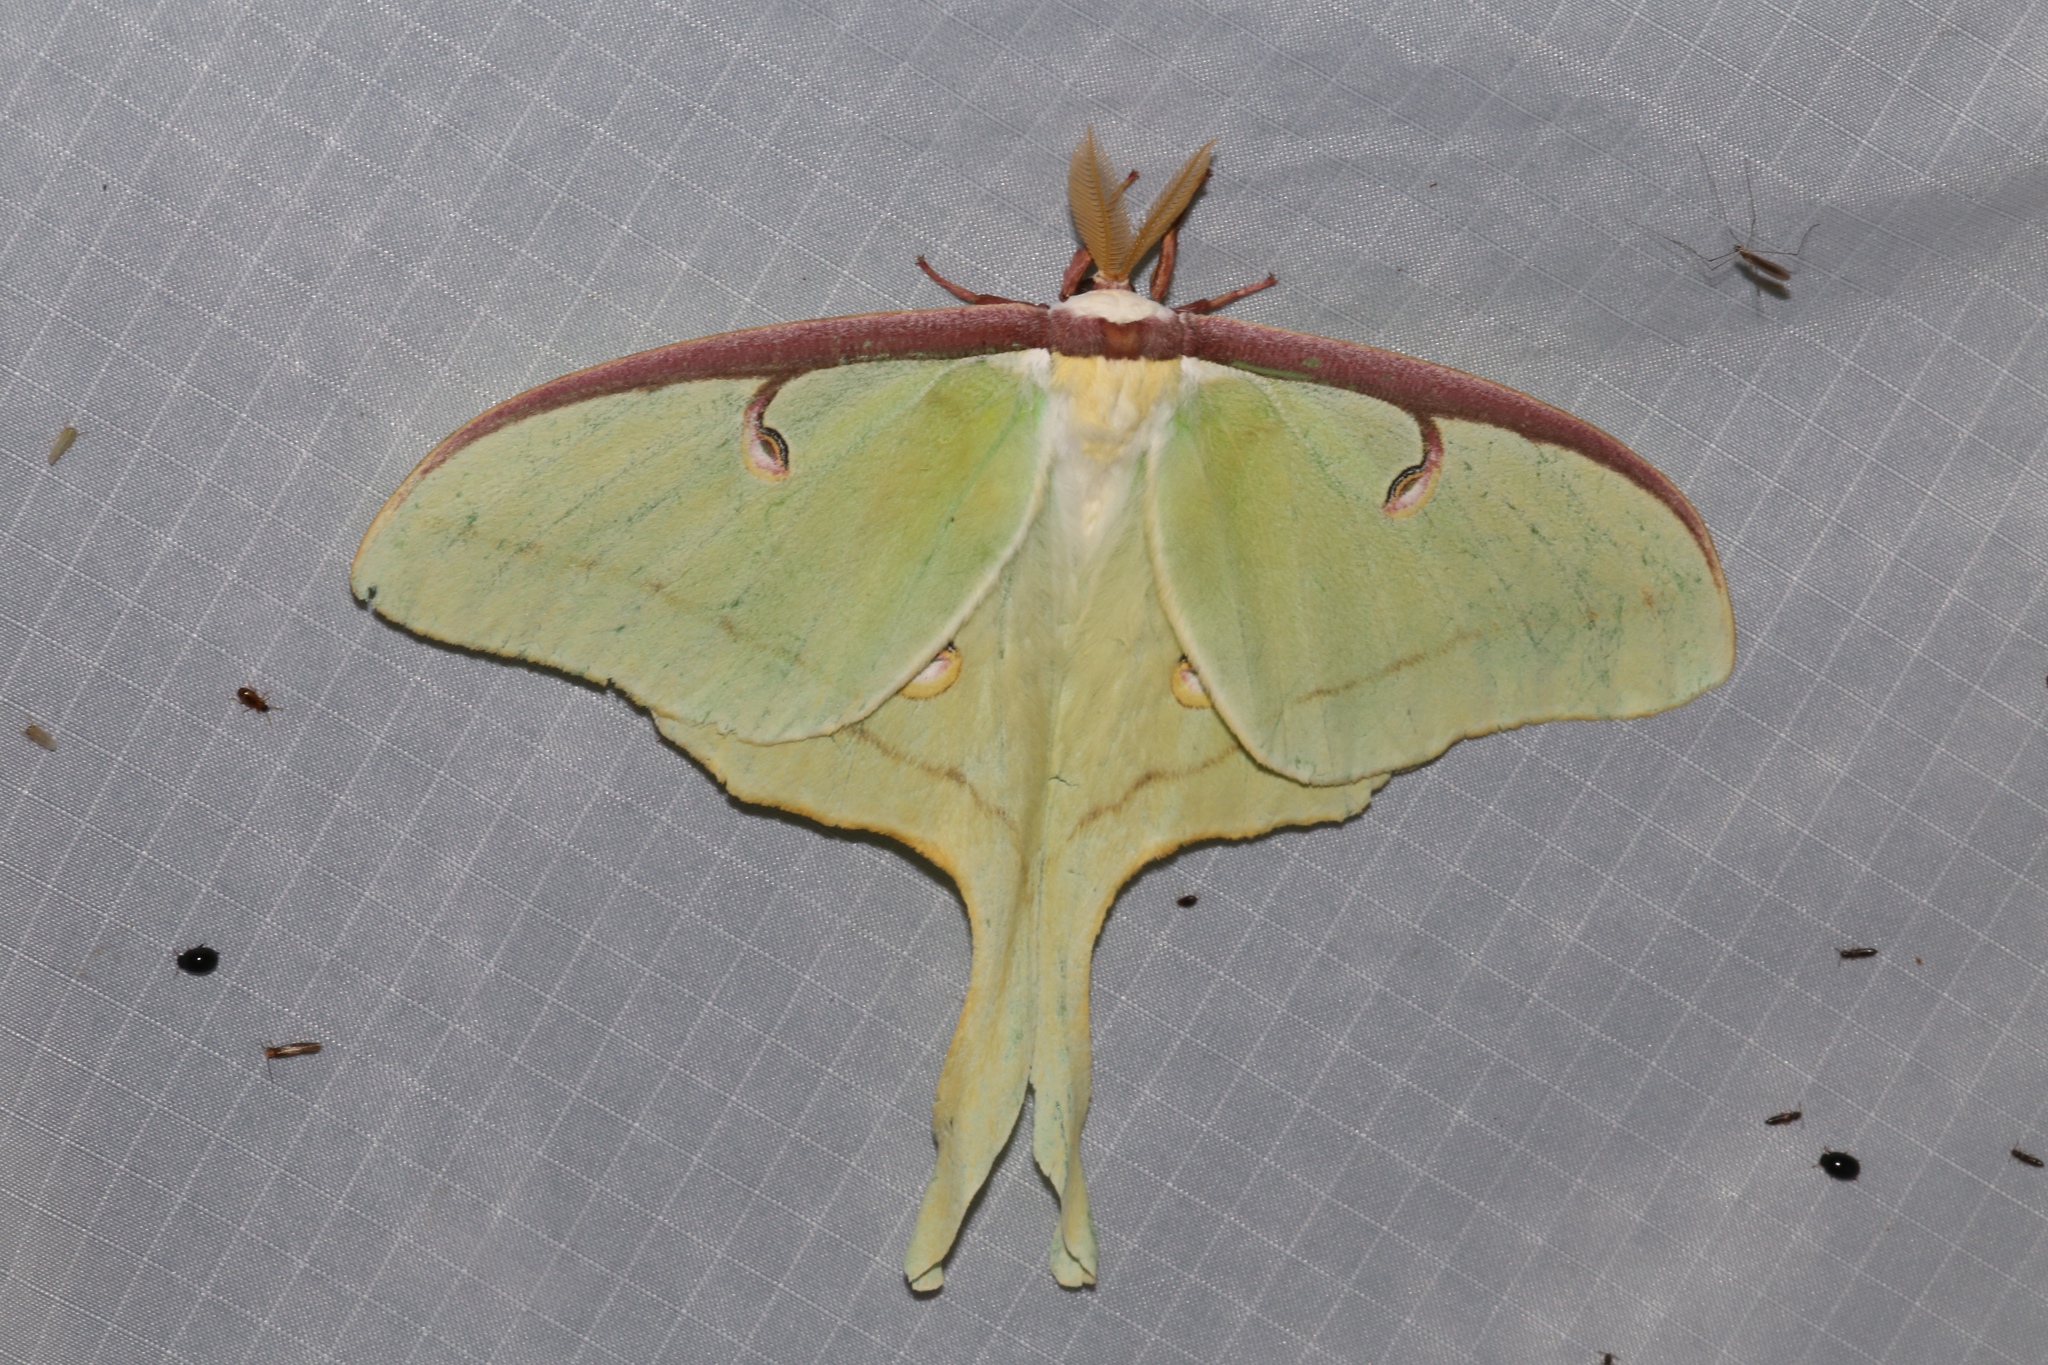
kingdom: Animalia
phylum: Arthropoda
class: Insecta
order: Lepidoptera
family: Saturniidae
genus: Actias
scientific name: Actias luna
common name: Luna moth
